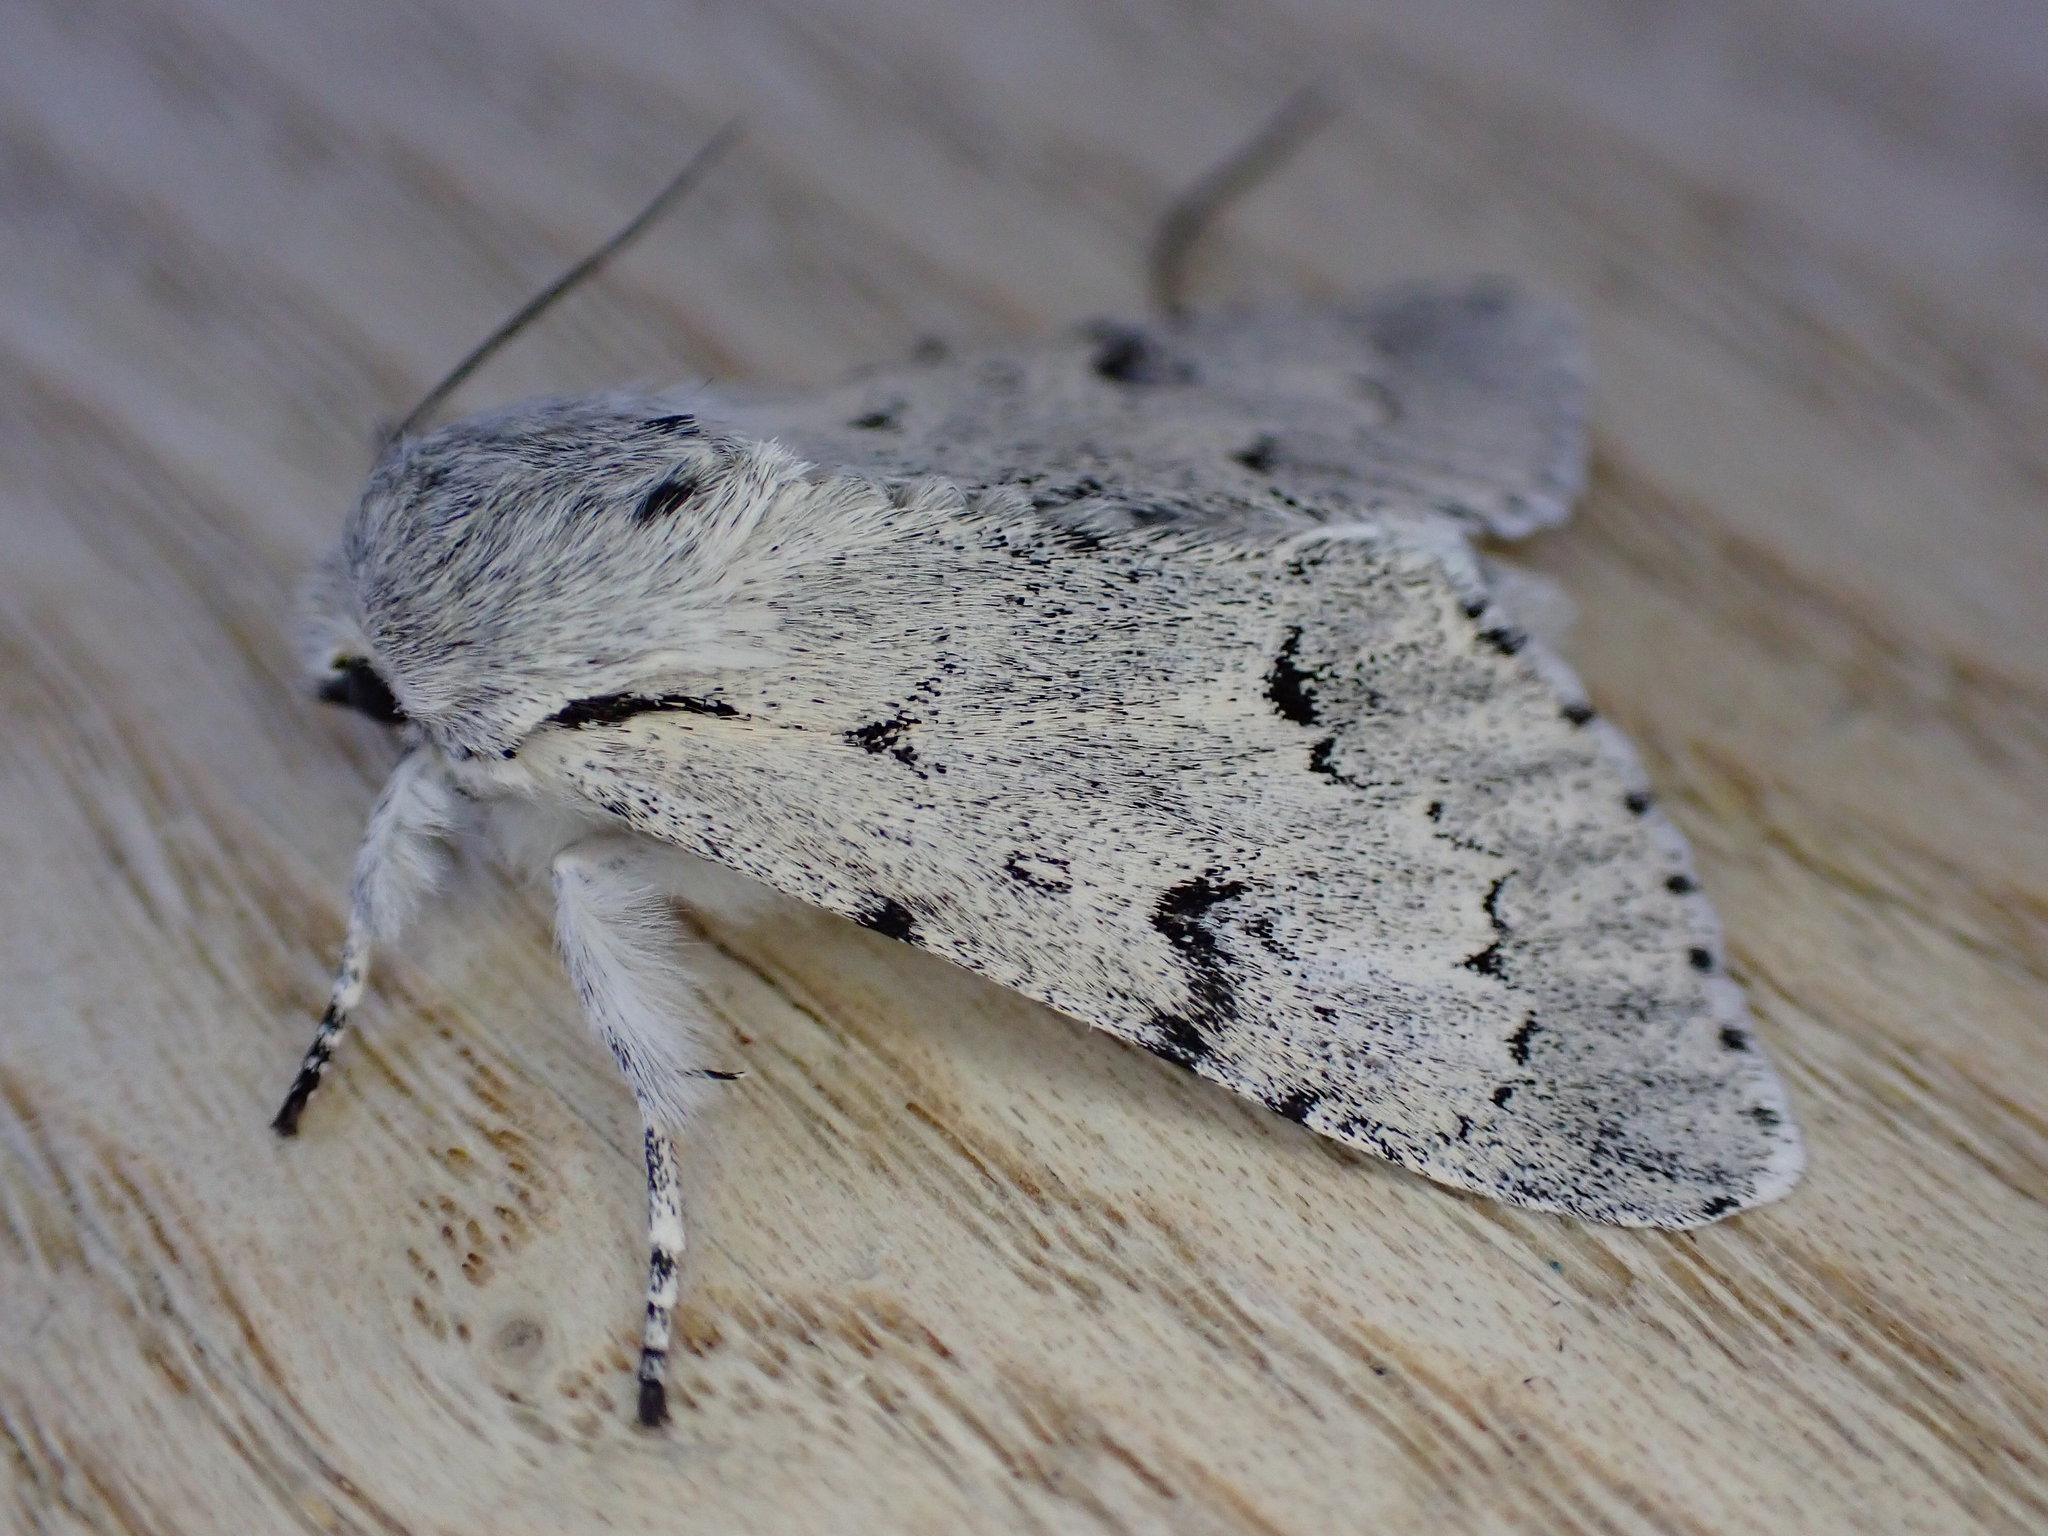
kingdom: Animalia
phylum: Arthropoda
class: Insecta
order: Lepidoptera
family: Noctuidae
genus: Acronicta
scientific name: Acronicta leporina
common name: Miller
